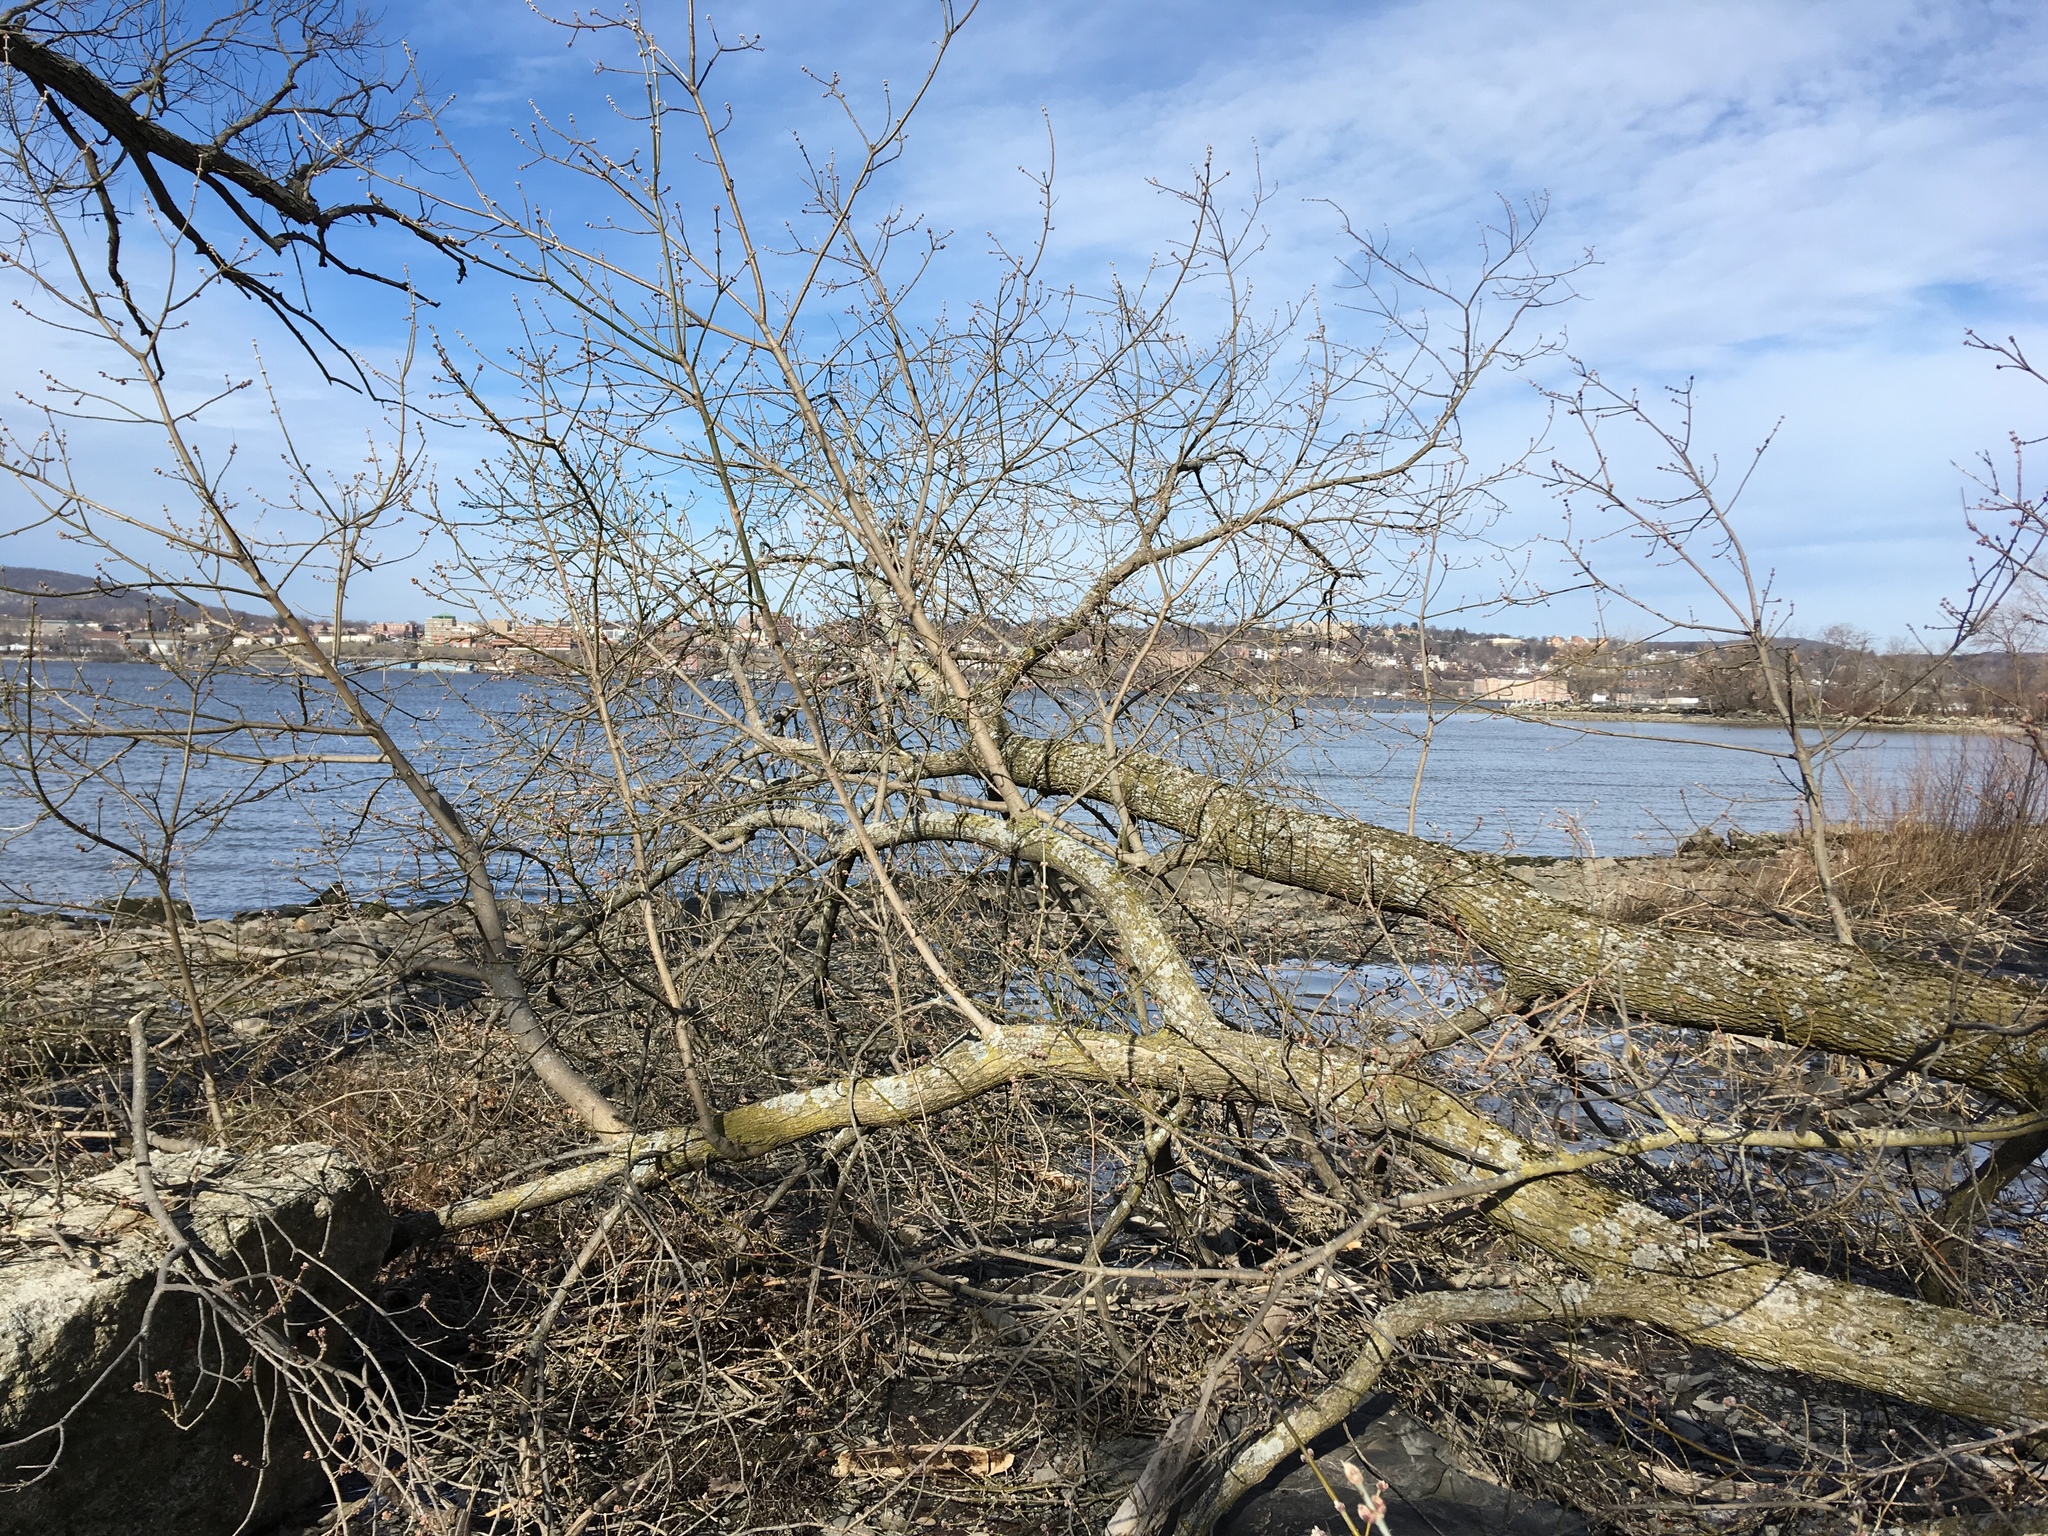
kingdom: Plantae
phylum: Tracheophyta
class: Magnoliopsida
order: Sapindales
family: Sapindaceae
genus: Acer
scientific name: Acer saccharinum
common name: Silver maple
